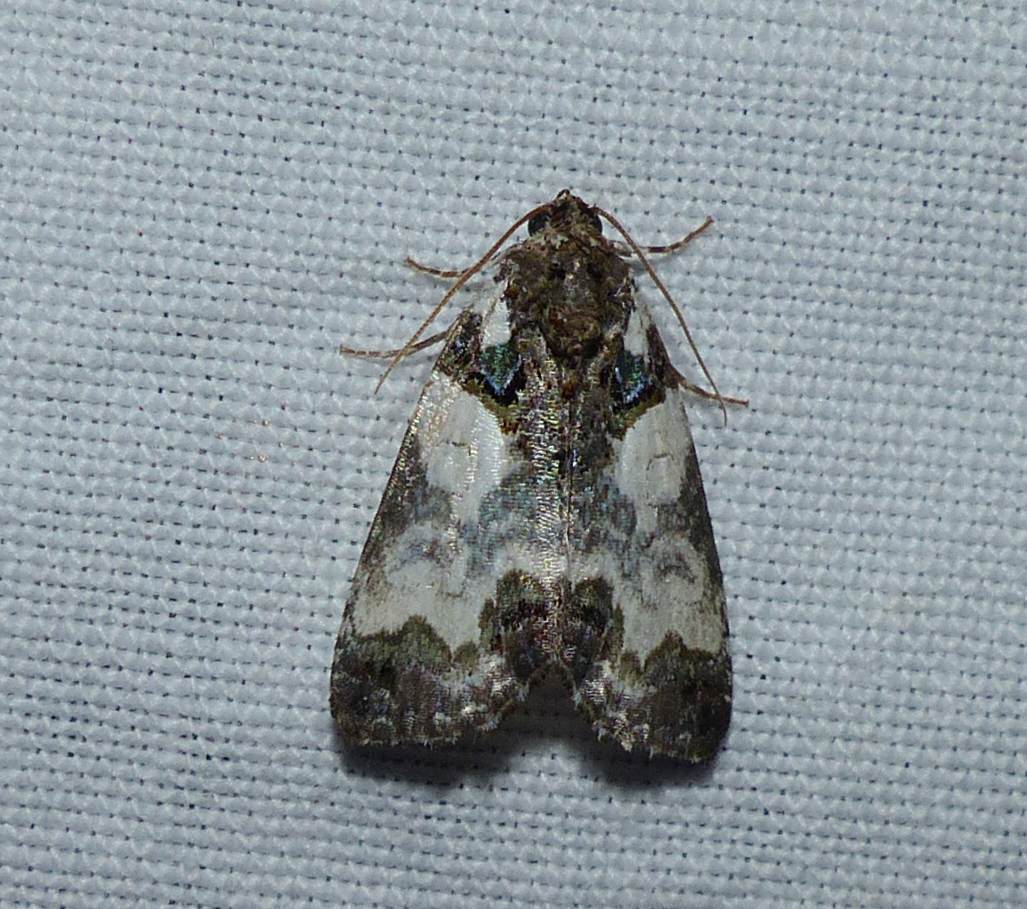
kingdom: Animalia
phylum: Arthropoda
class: Insecta
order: Lepidoptera
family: Noctuidae
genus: Cerma
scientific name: Cerma cerintha
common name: Tufted bird-dropping moth
